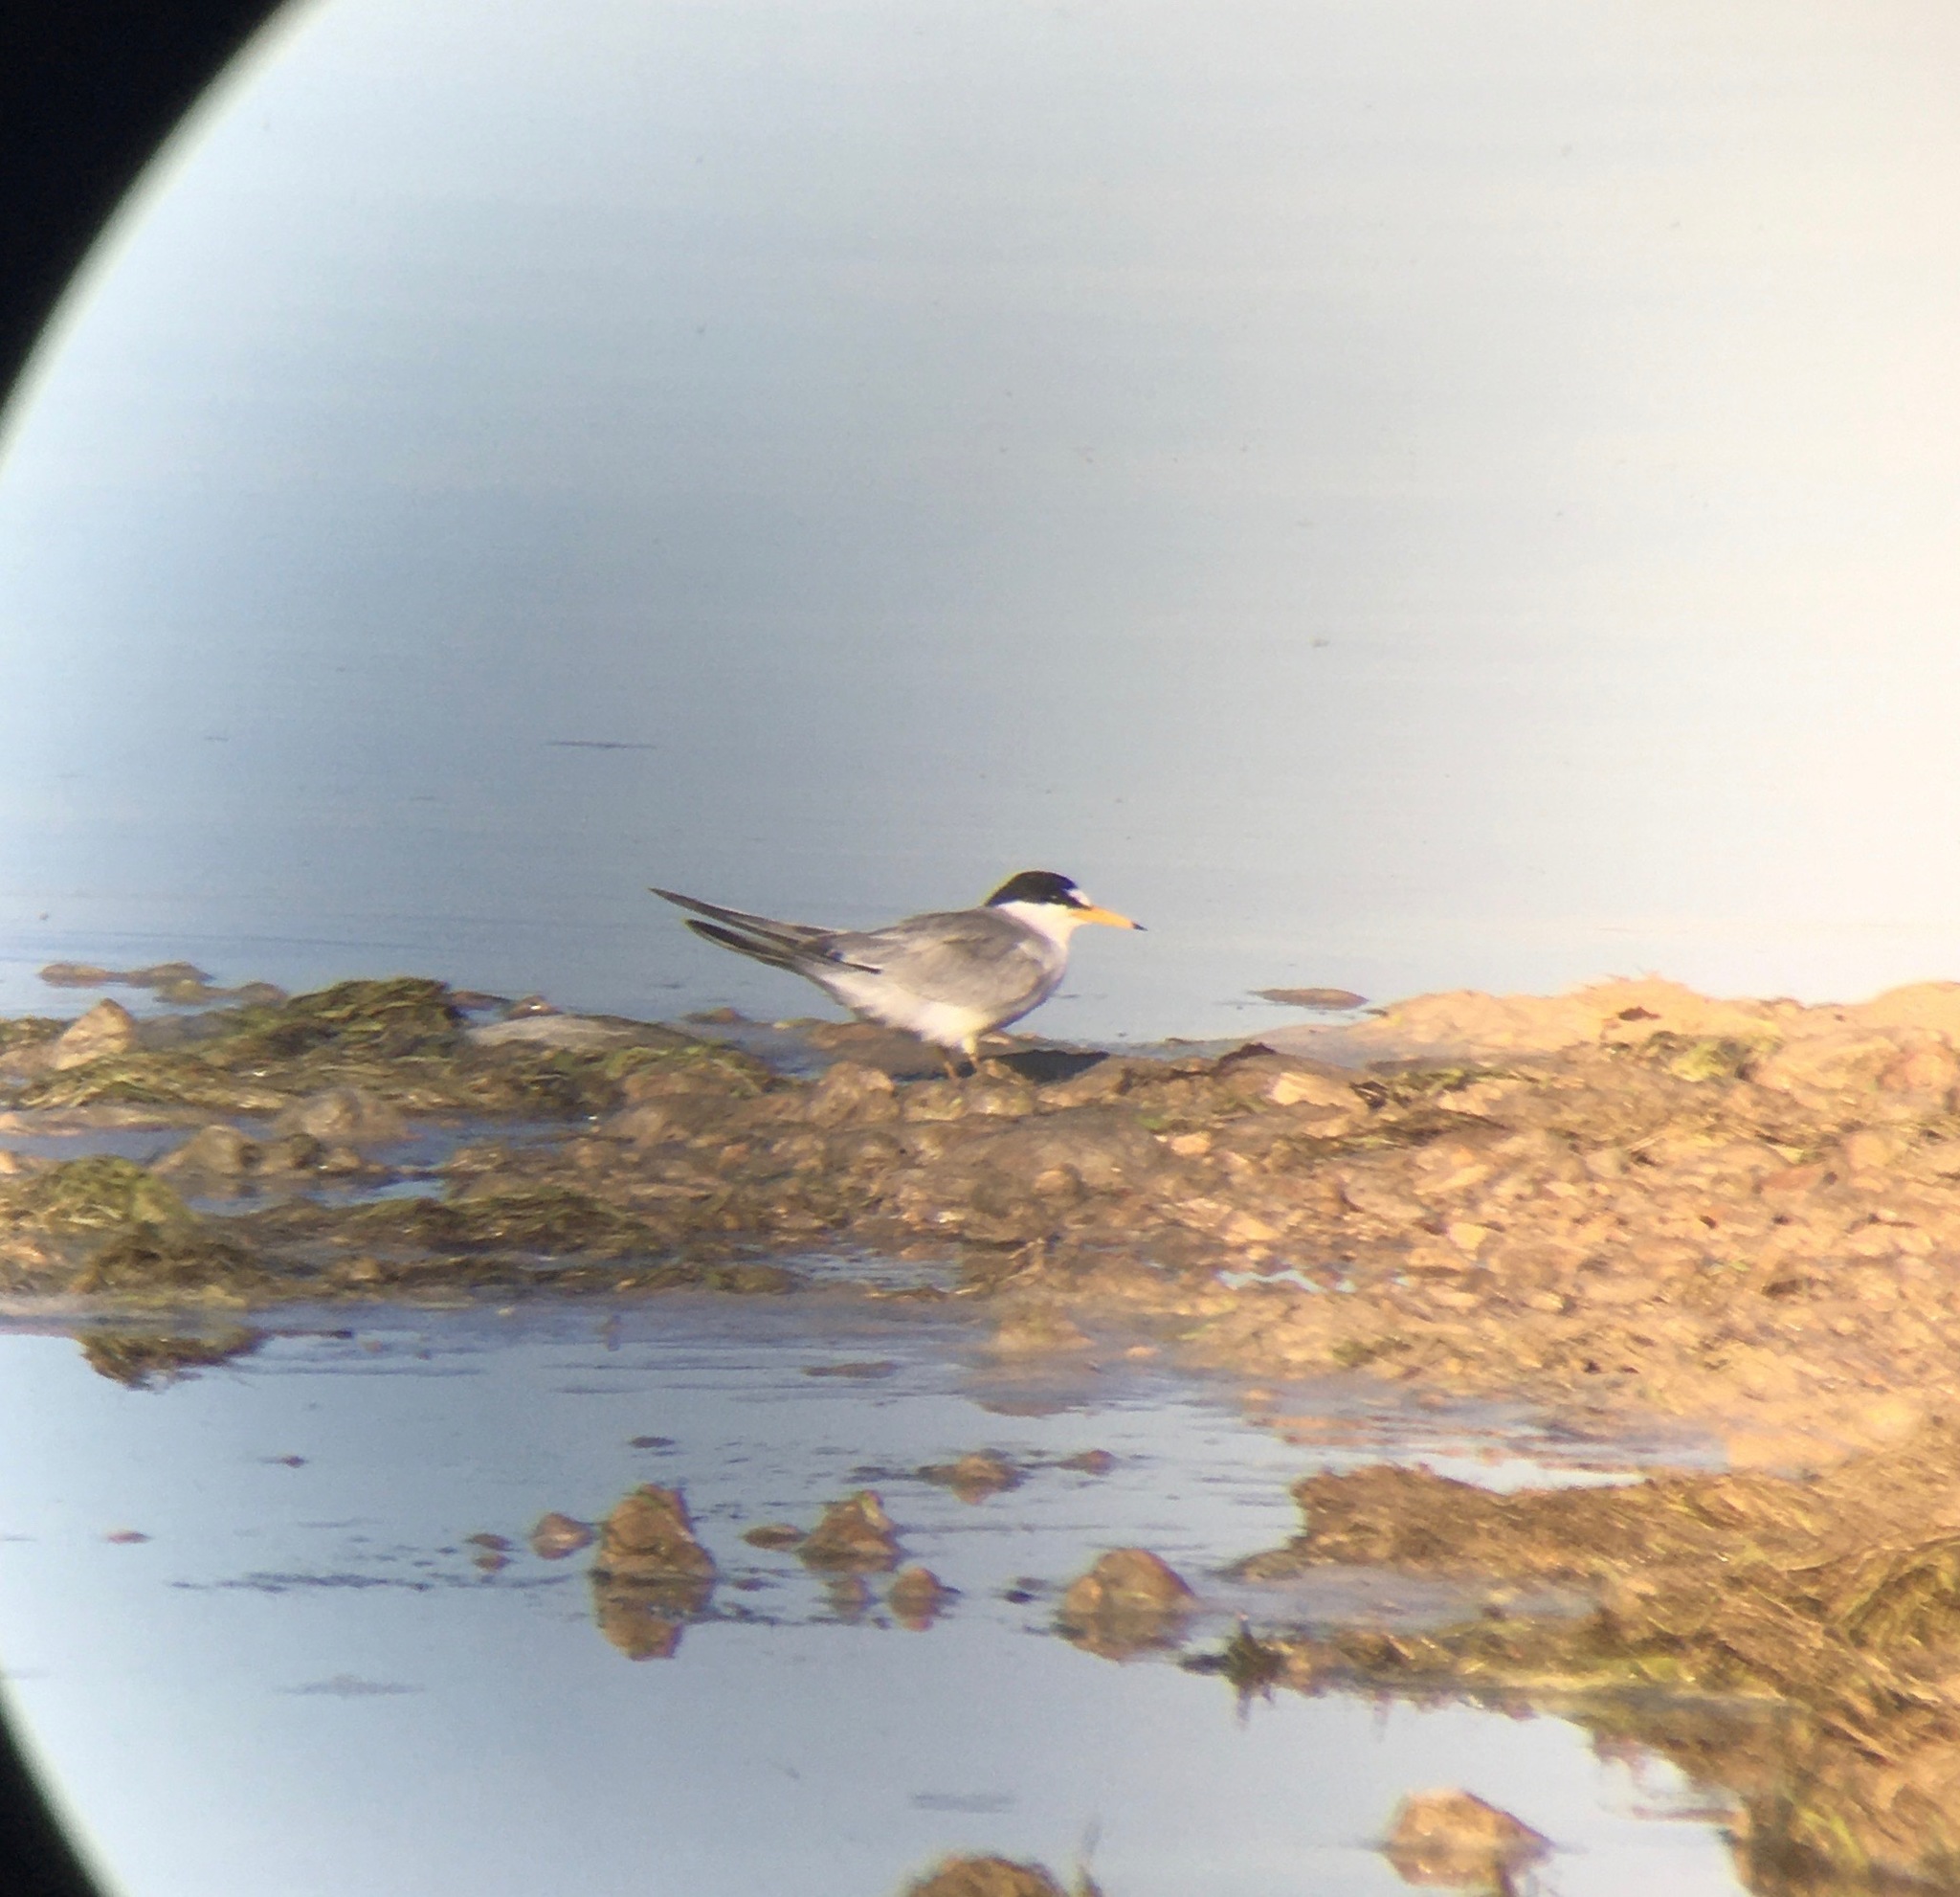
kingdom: Animalia
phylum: Chordata
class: Aves
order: Charadriiformes
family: Laridae
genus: Sternula
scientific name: Sternula antillarum
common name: Least tern
